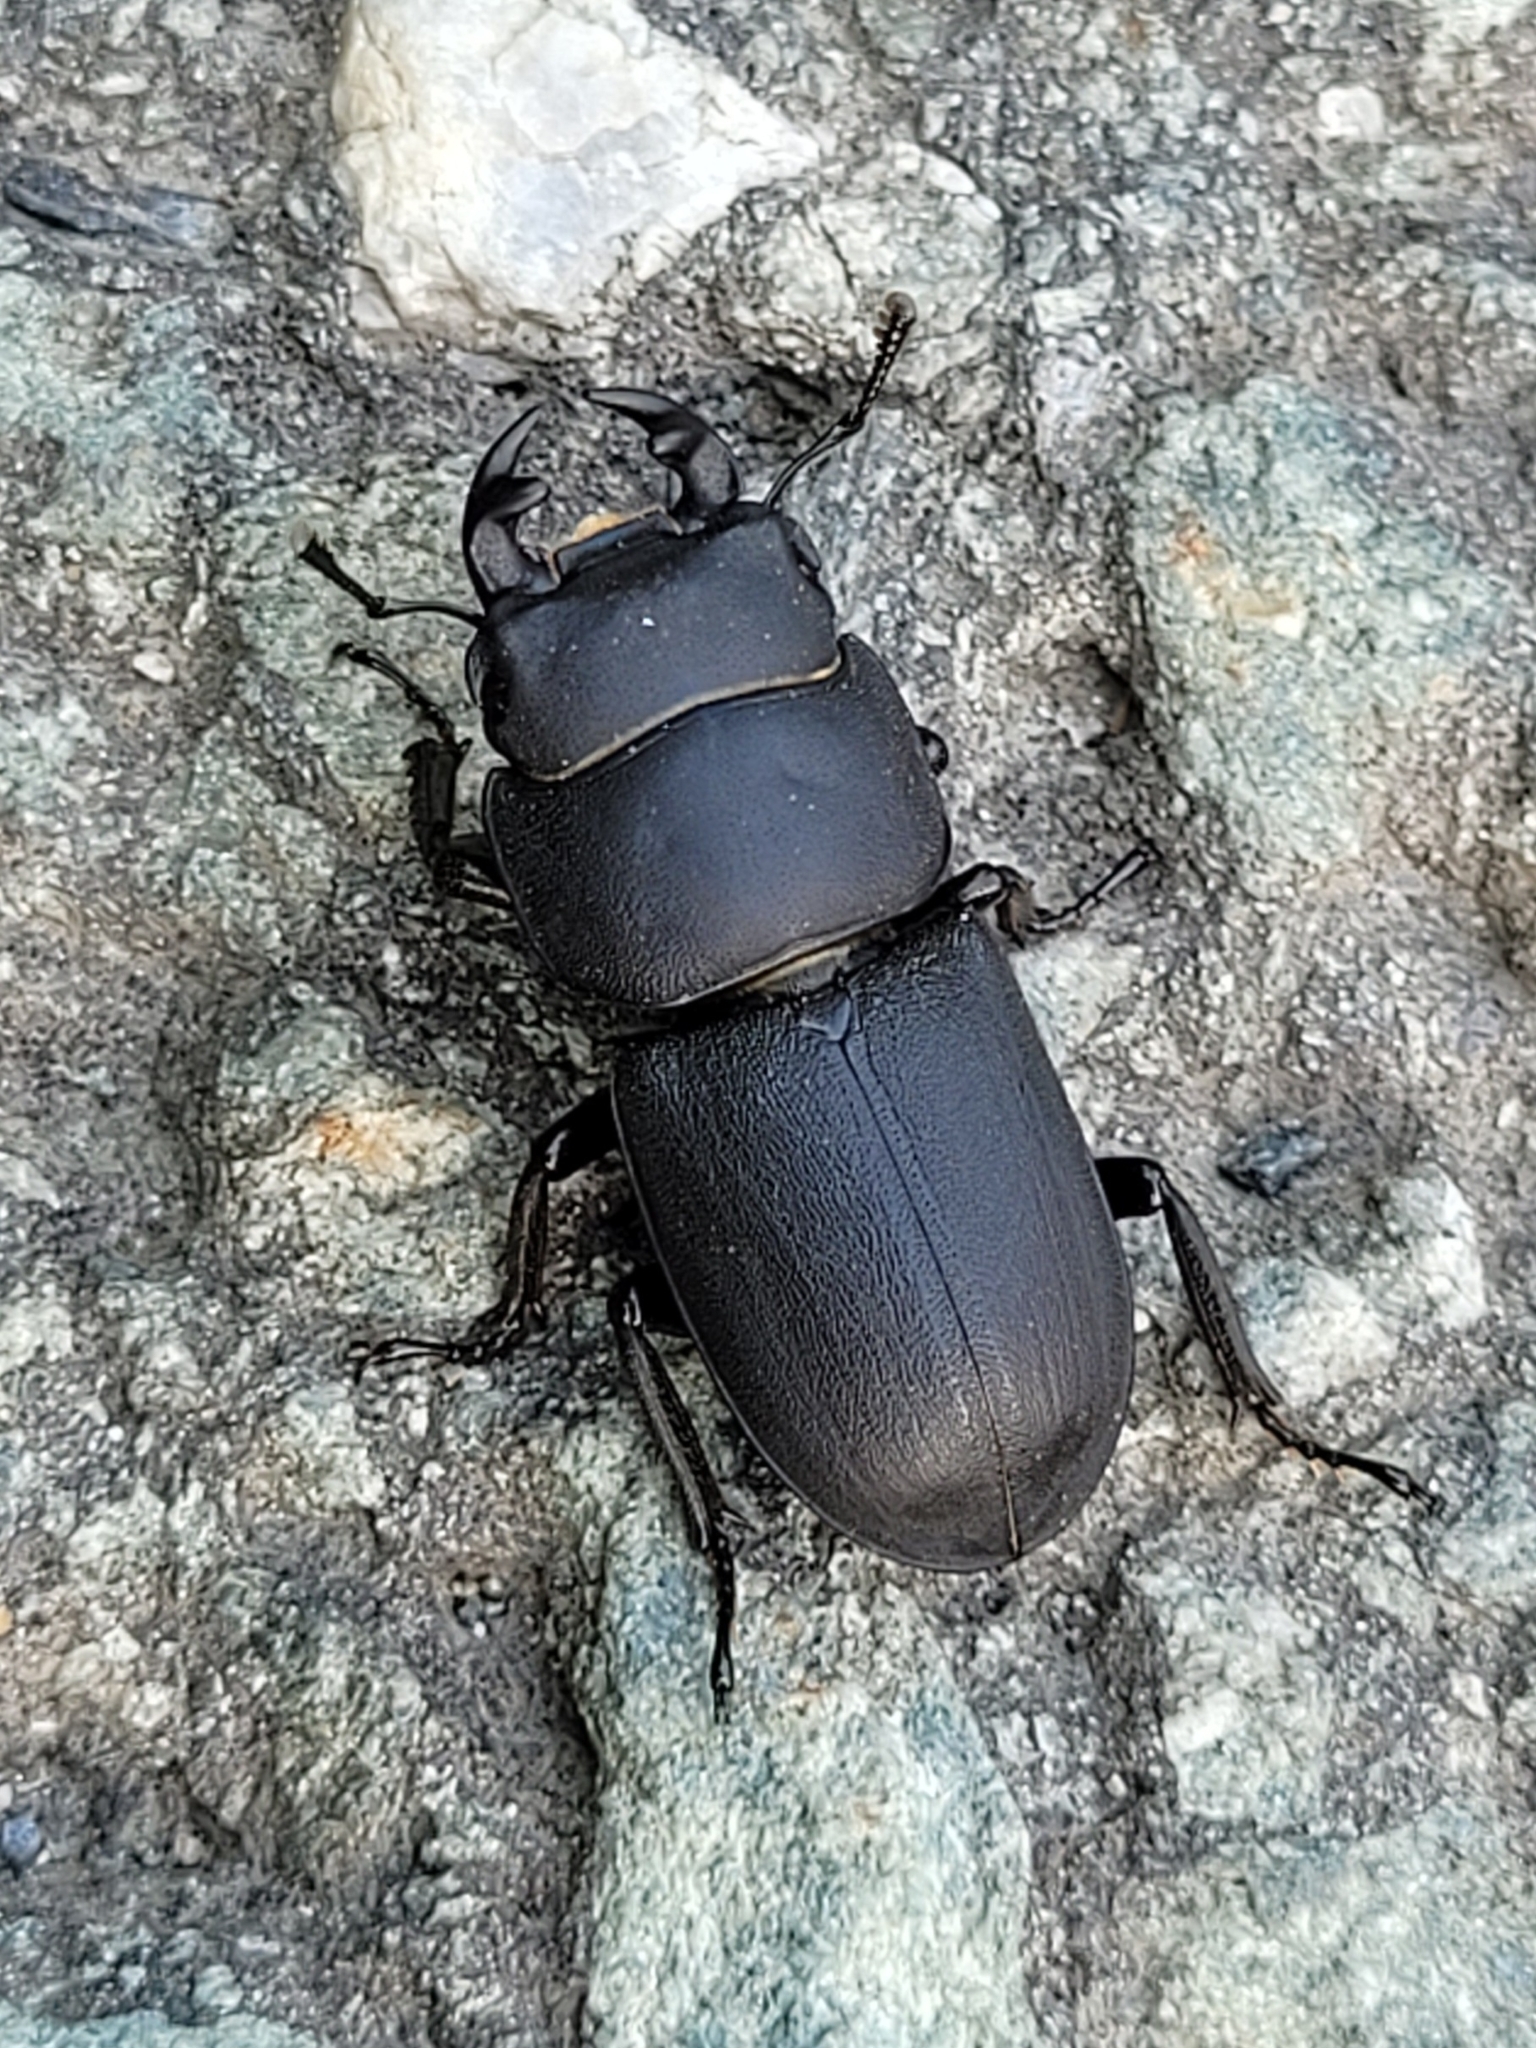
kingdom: Animalia
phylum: Arthropoda
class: Insecta
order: Coleoptera
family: Lucanidae
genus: Dorcus
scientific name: Dorcus parallelipipedus
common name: Lesser stag beetle
